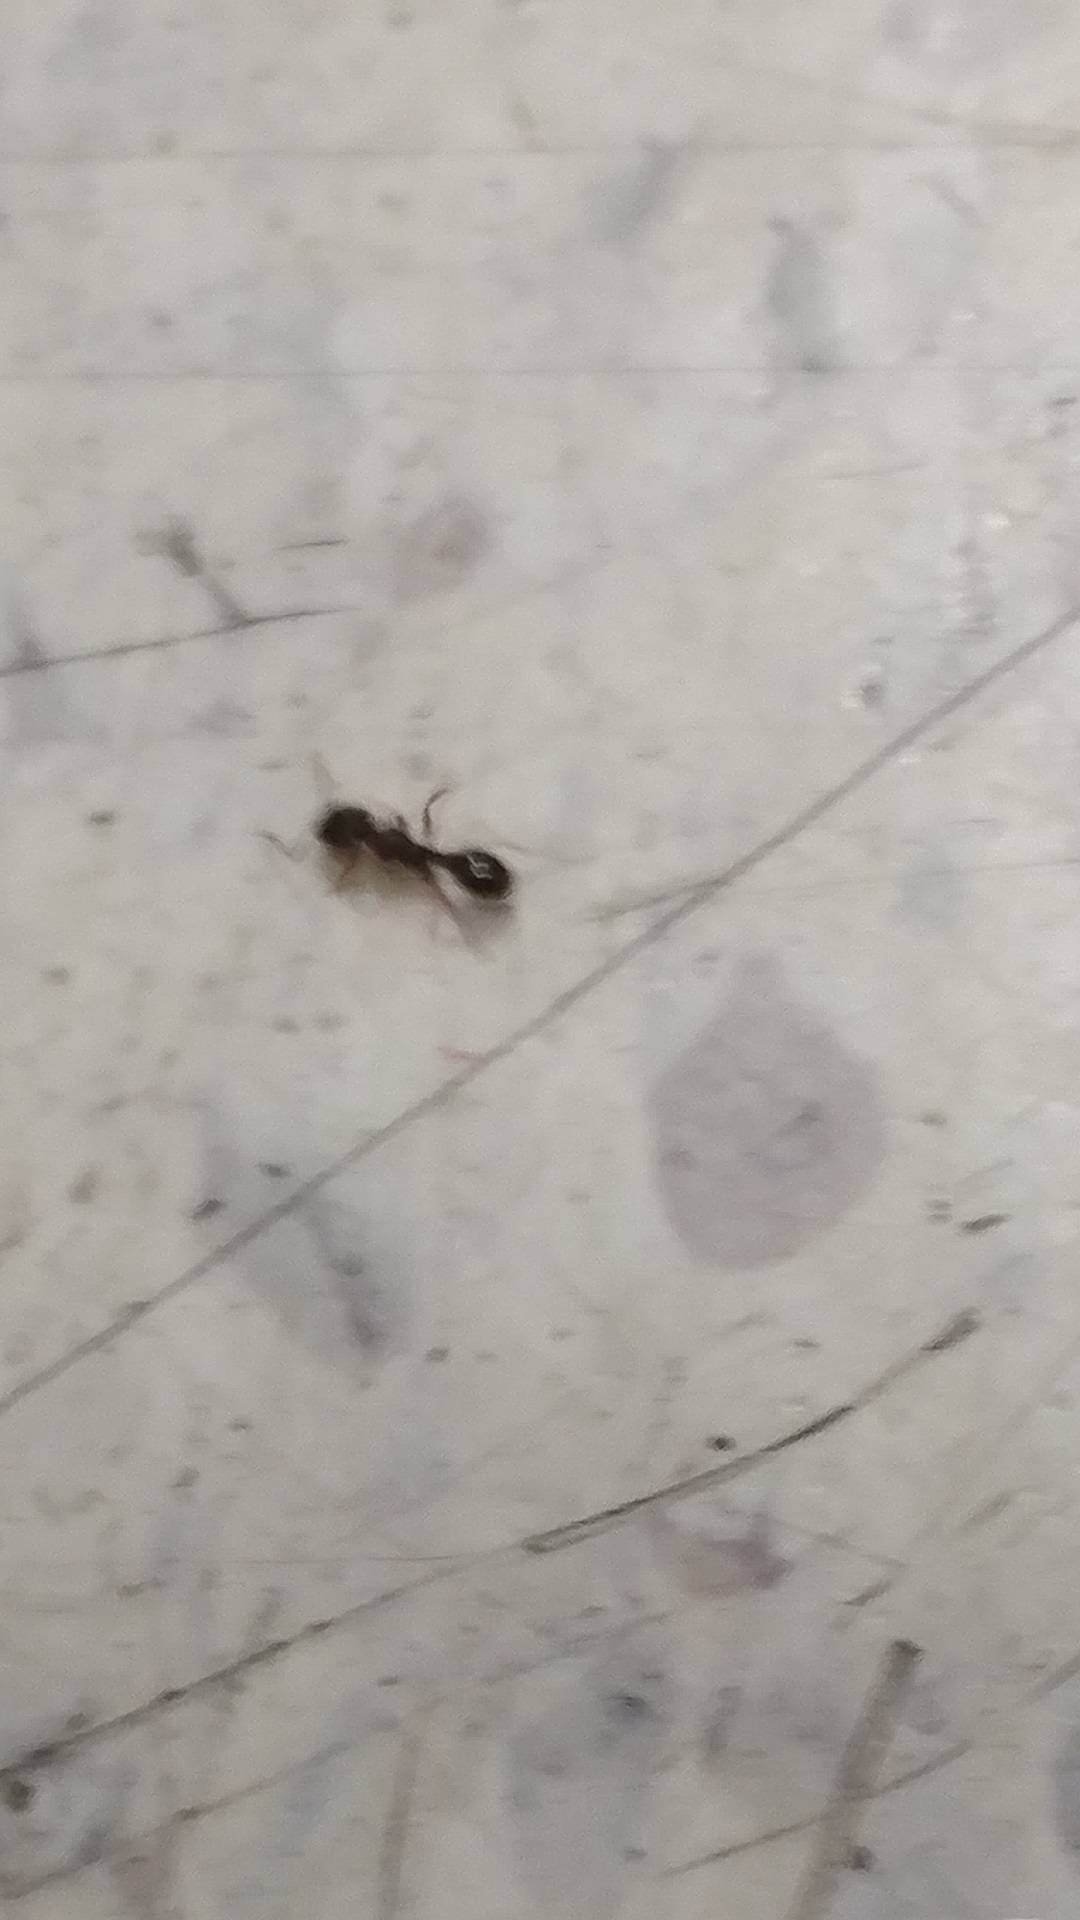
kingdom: Animalia
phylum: Arthropoda
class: Insecta
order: Hymenoptera
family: Formicidae
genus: Tetramorium
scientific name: Tetramorium immigrans
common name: Pavement ant
